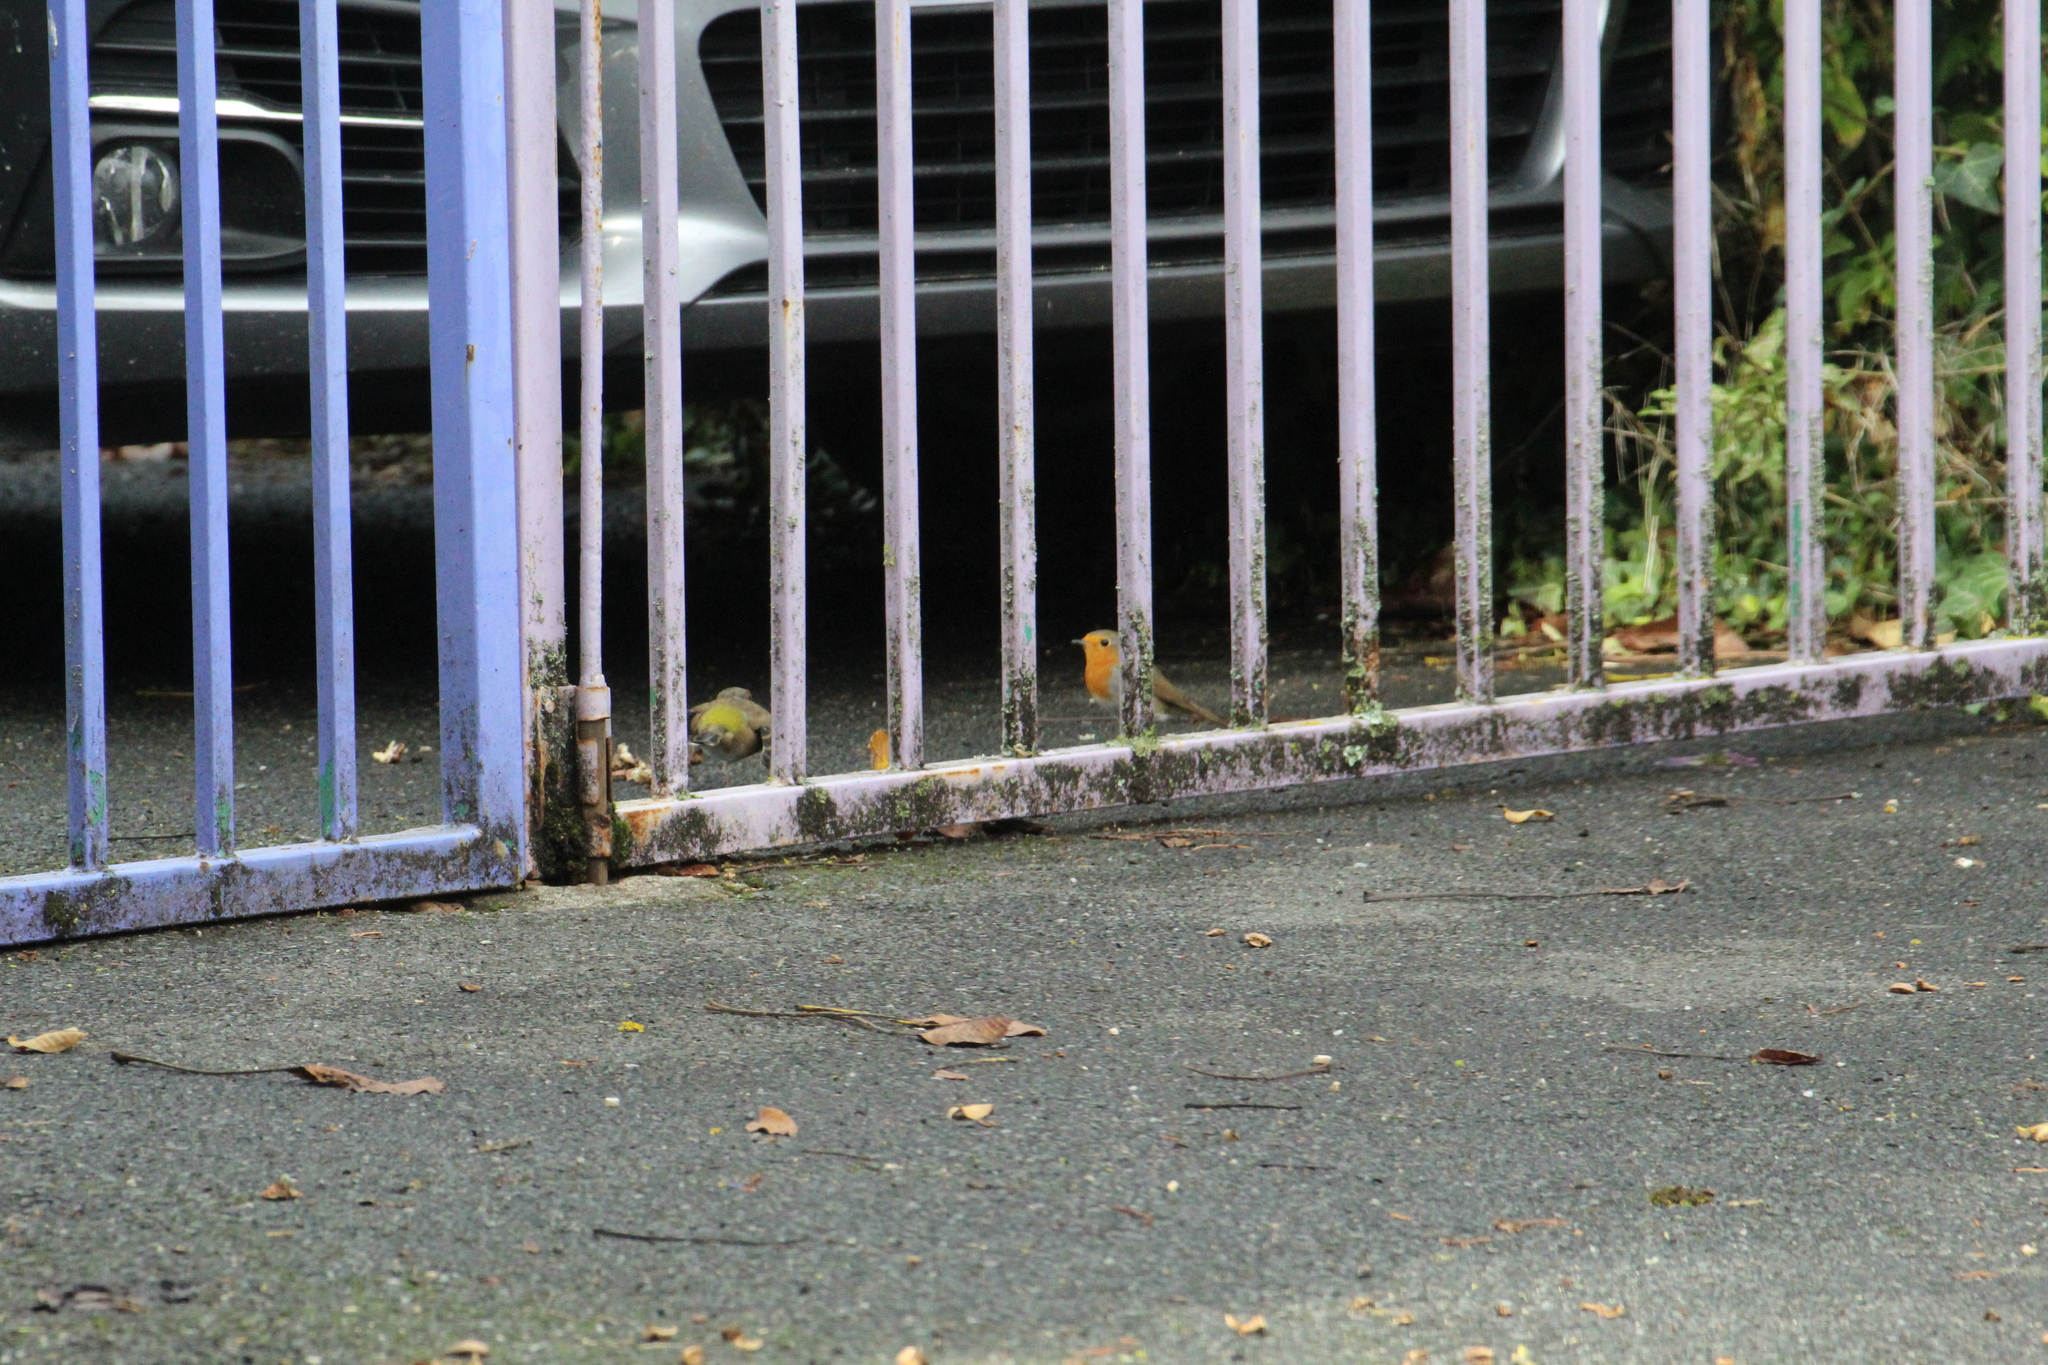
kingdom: Animalia
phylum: Chordata
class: Aves
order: Passeriformes
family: Muscicapidae
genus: Erithacus
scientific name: Erithacus rubecula
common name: European robin
